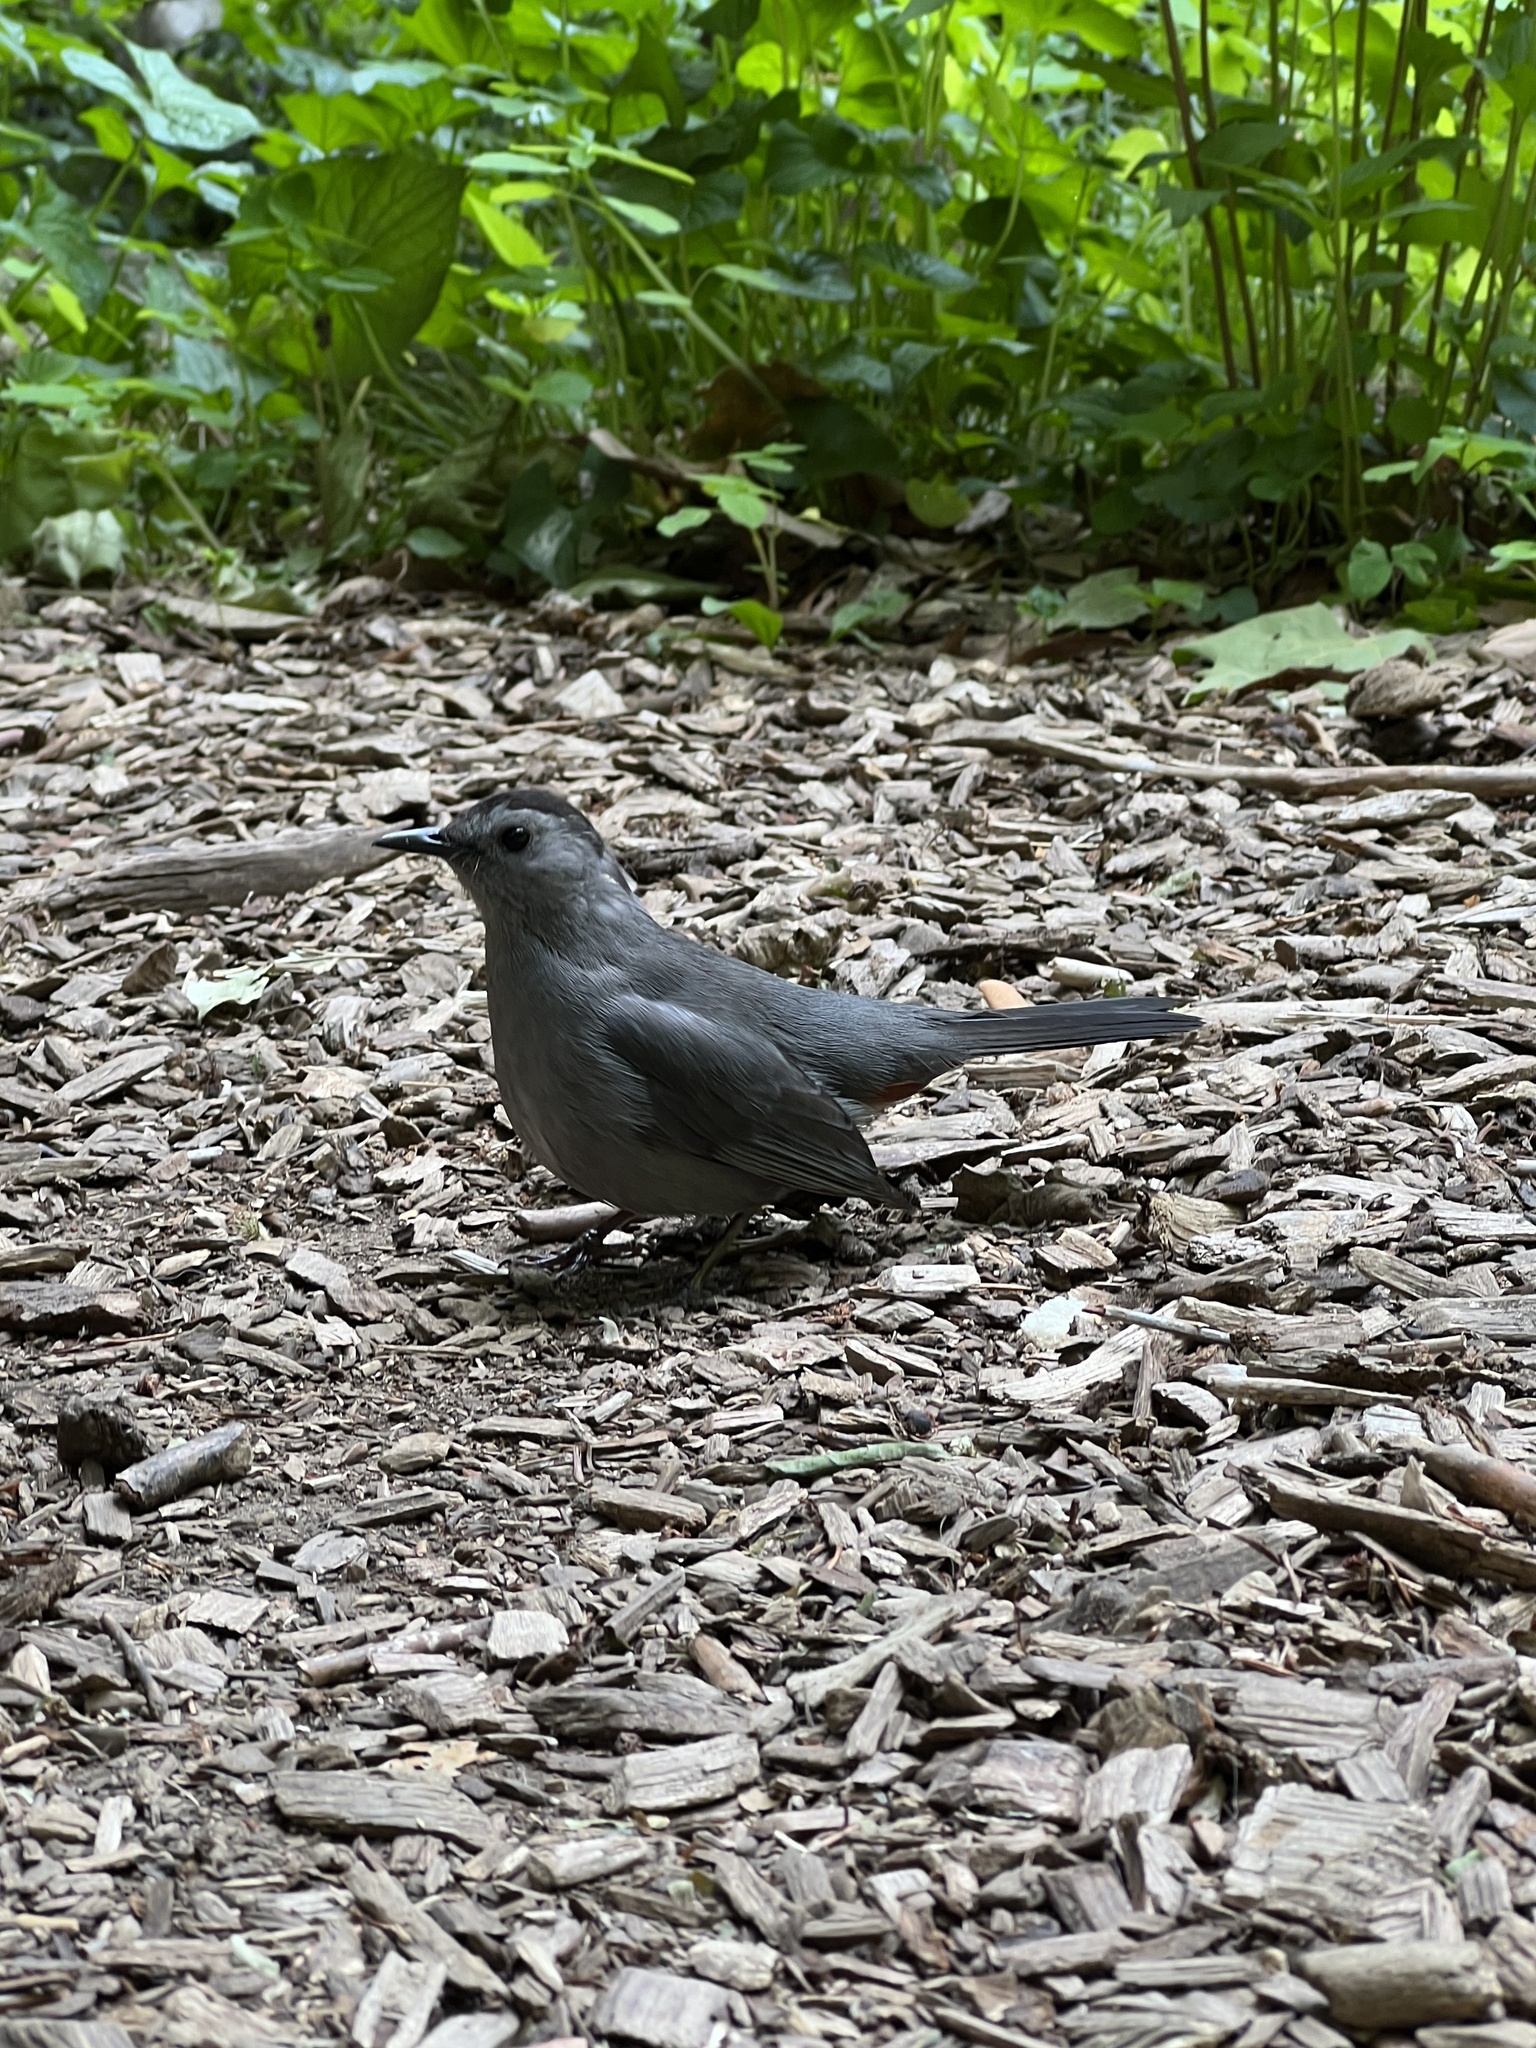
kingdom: Animalia
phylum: Chordata
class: Aves
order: Passeriformes
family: Mimidae
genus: Dumetella
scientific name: Dumetella carolinensis
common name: Gray catbird
